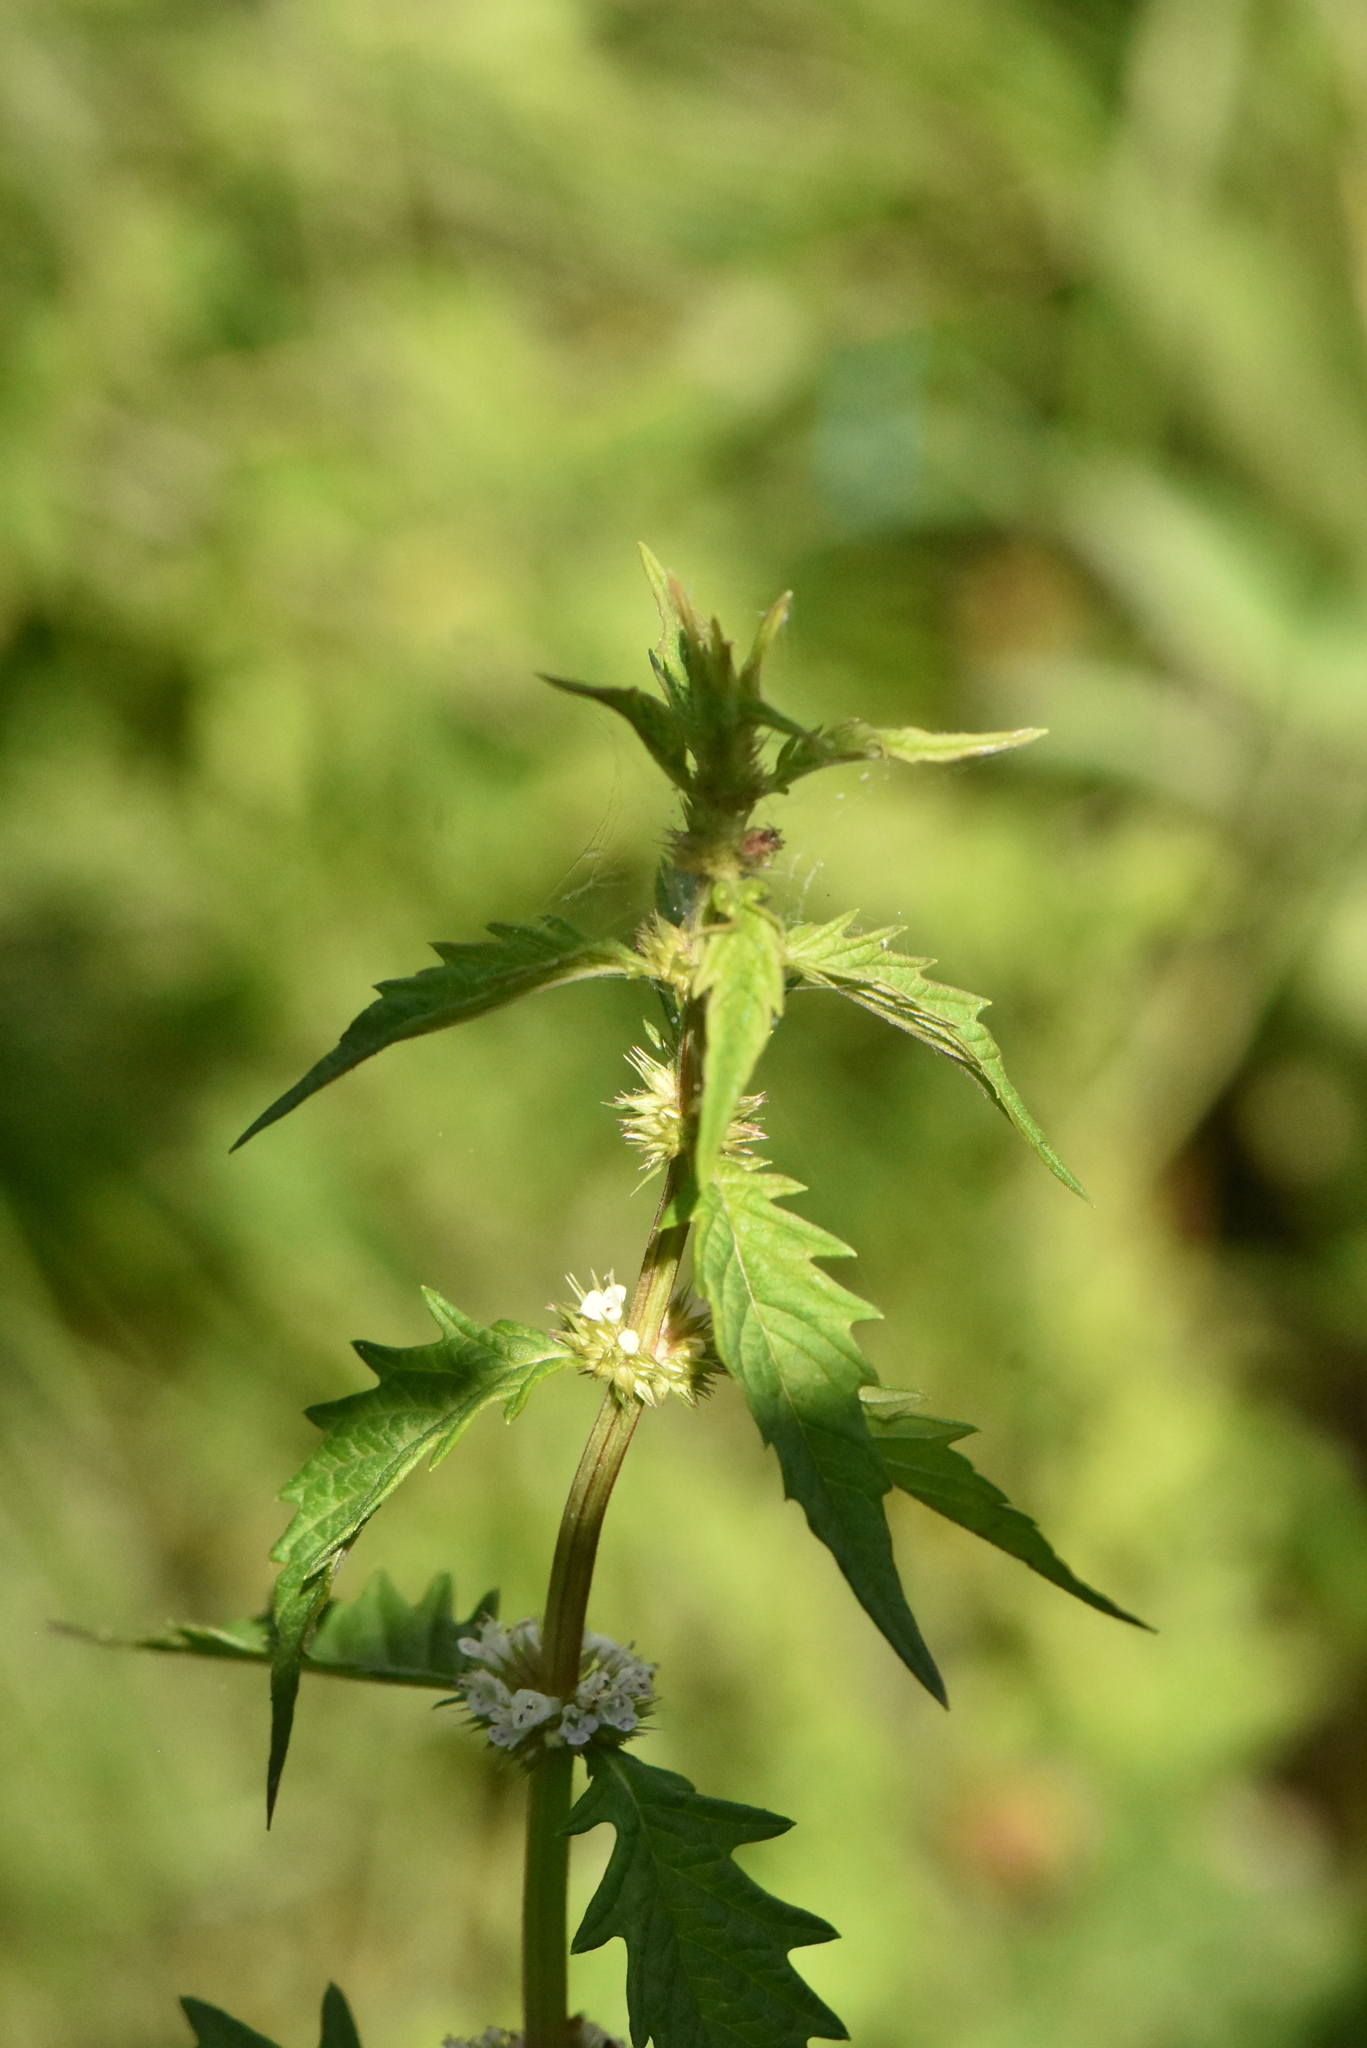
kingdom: Plantae
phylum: Tracheophyta
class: Magnoliopsida
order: Lamiales
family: Lamiaceae
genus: Lycopus
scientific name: Lycopus europaeus
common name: European bugleweed
